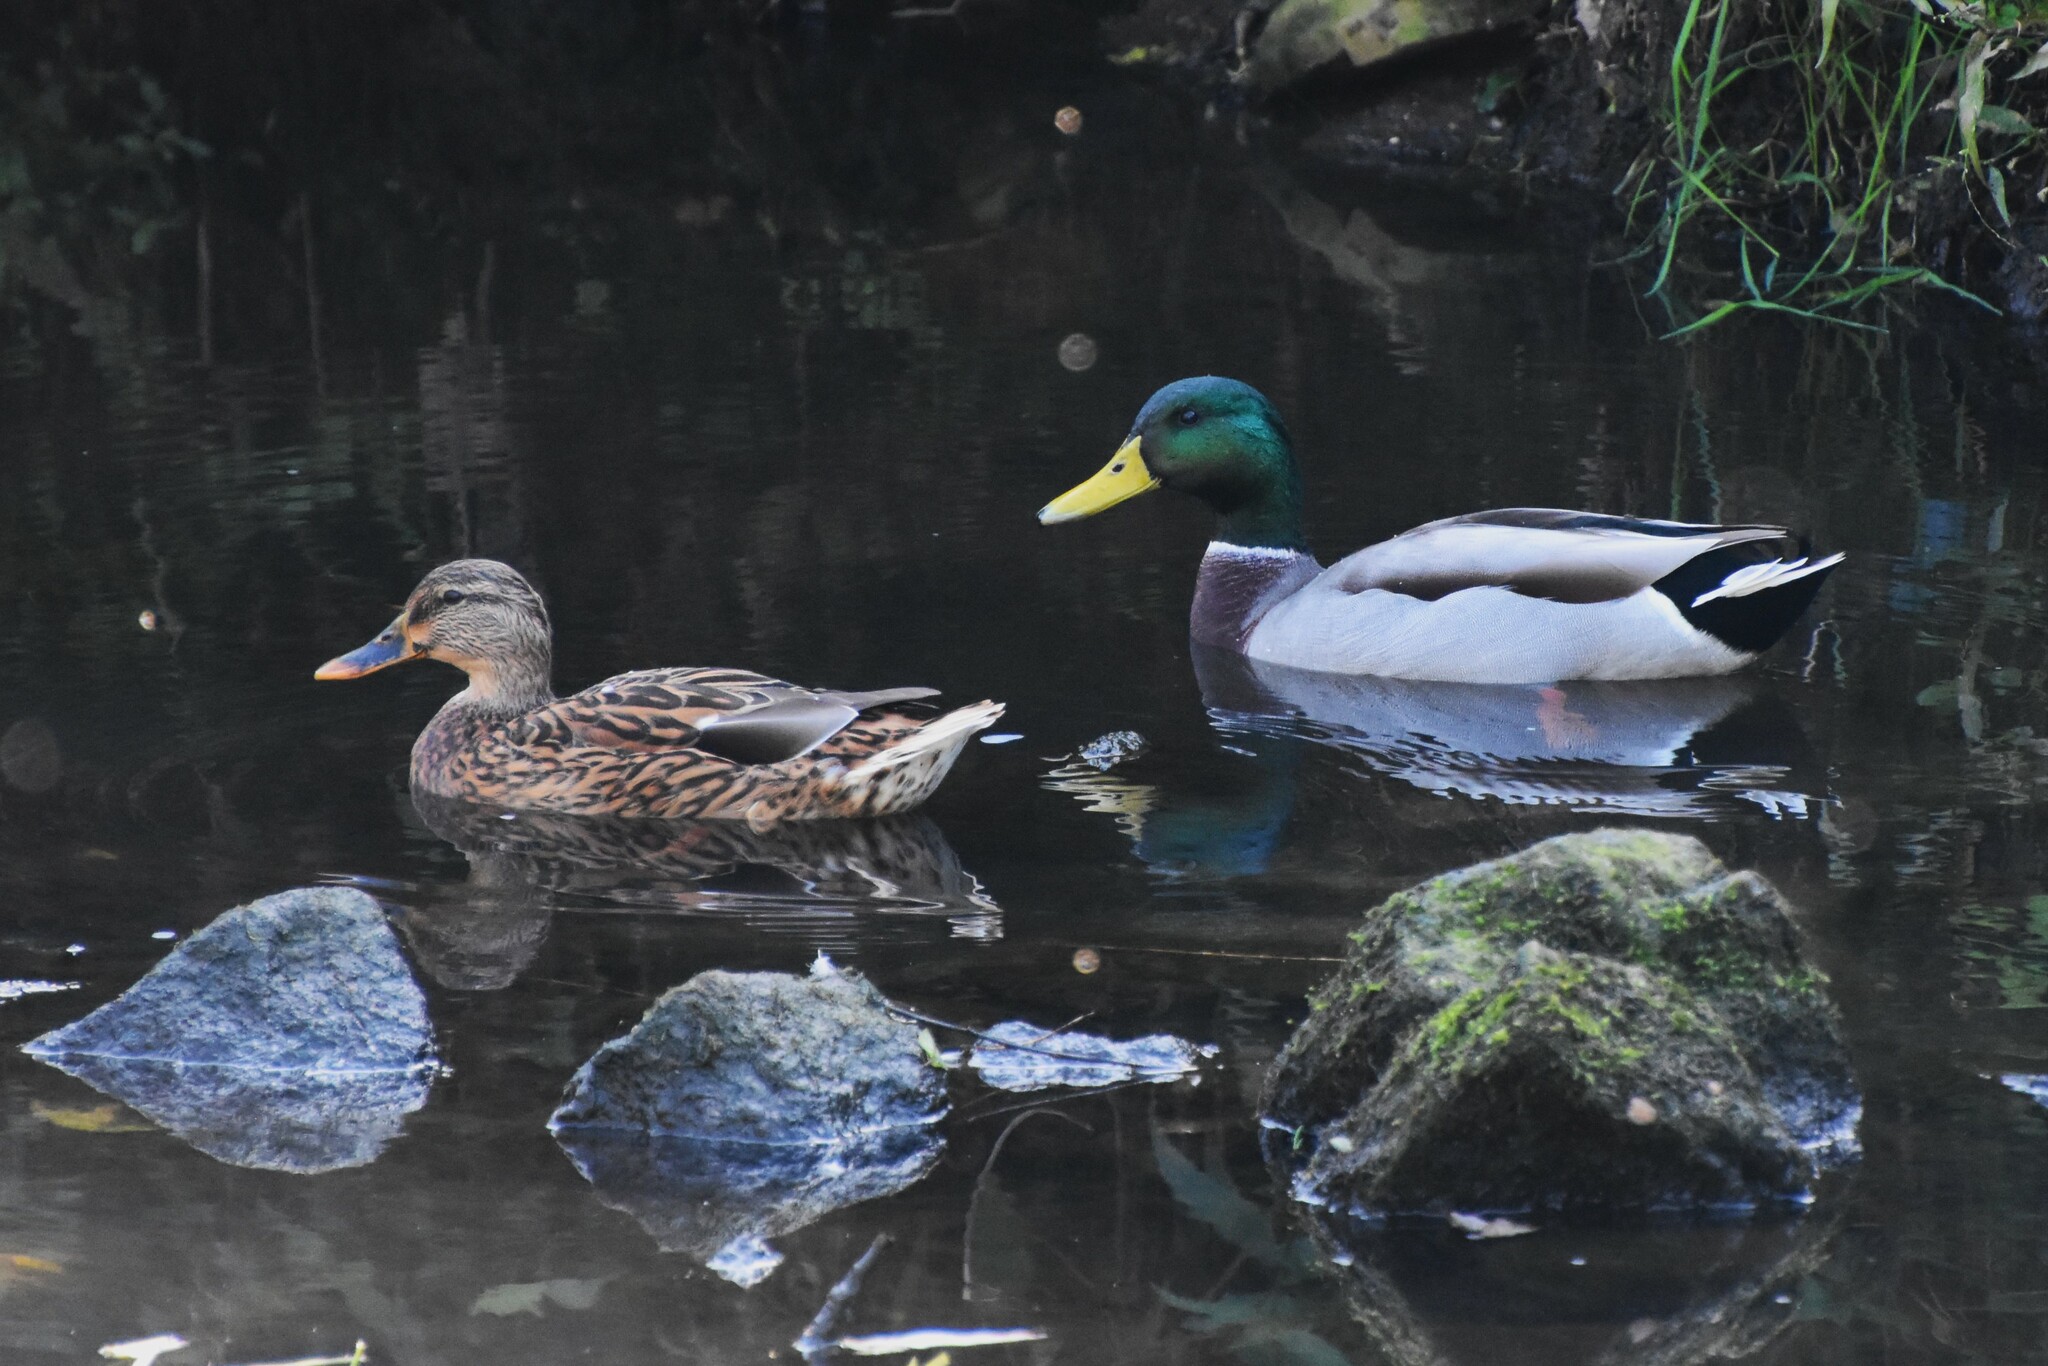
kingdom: Animalia
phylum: Chordata
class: Aves
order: Anseriformes
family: Anatidae
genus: Anas
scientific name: Anas platyrhynchos
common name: Mallard
